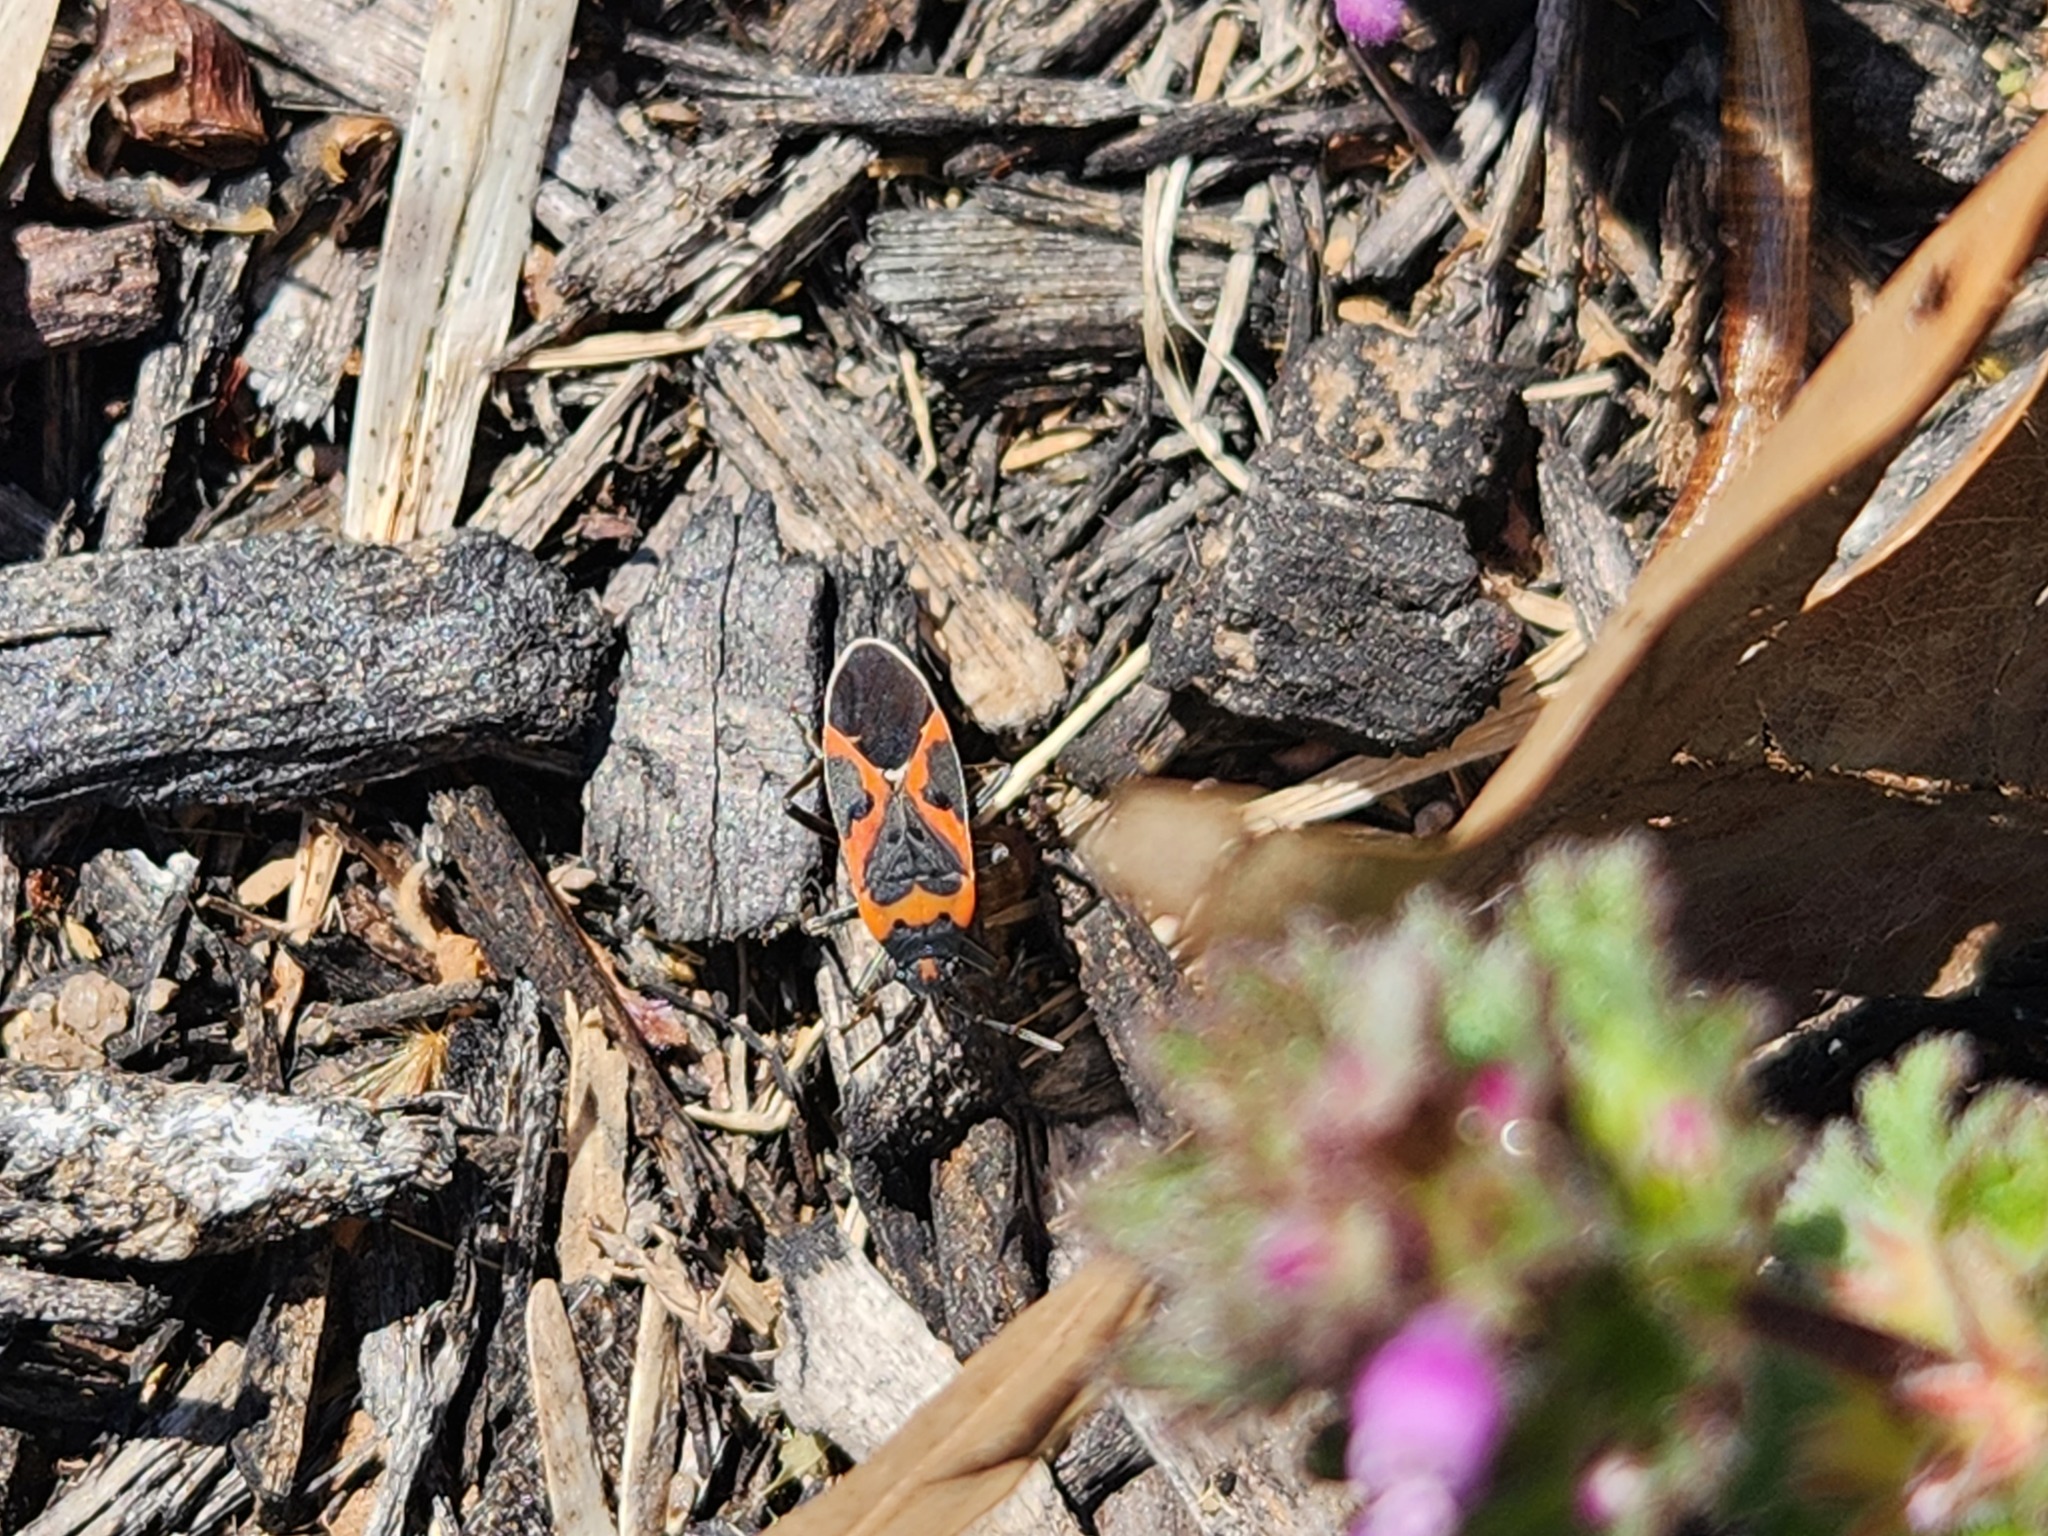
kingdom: Animalia
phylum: Arthropoda
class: Insecta
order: Hemiptera
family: Lygaeidae
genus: Lygaeus
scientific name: Lygaeus kalmii
